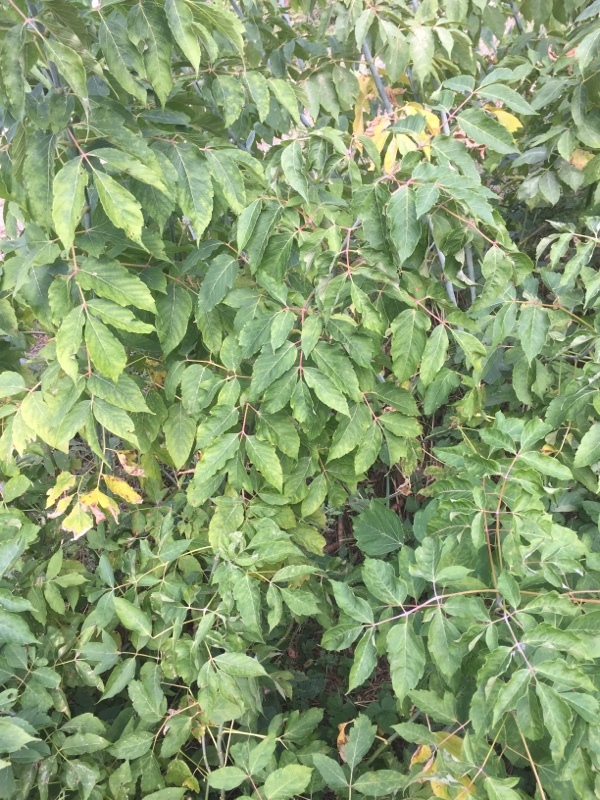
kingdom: Plantae
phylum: Tracheophyta
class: Magnoliopsida
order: Sapindales
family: Sapindaceae
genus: Acer
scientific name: Acer negundo
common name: Ashleaf maple
